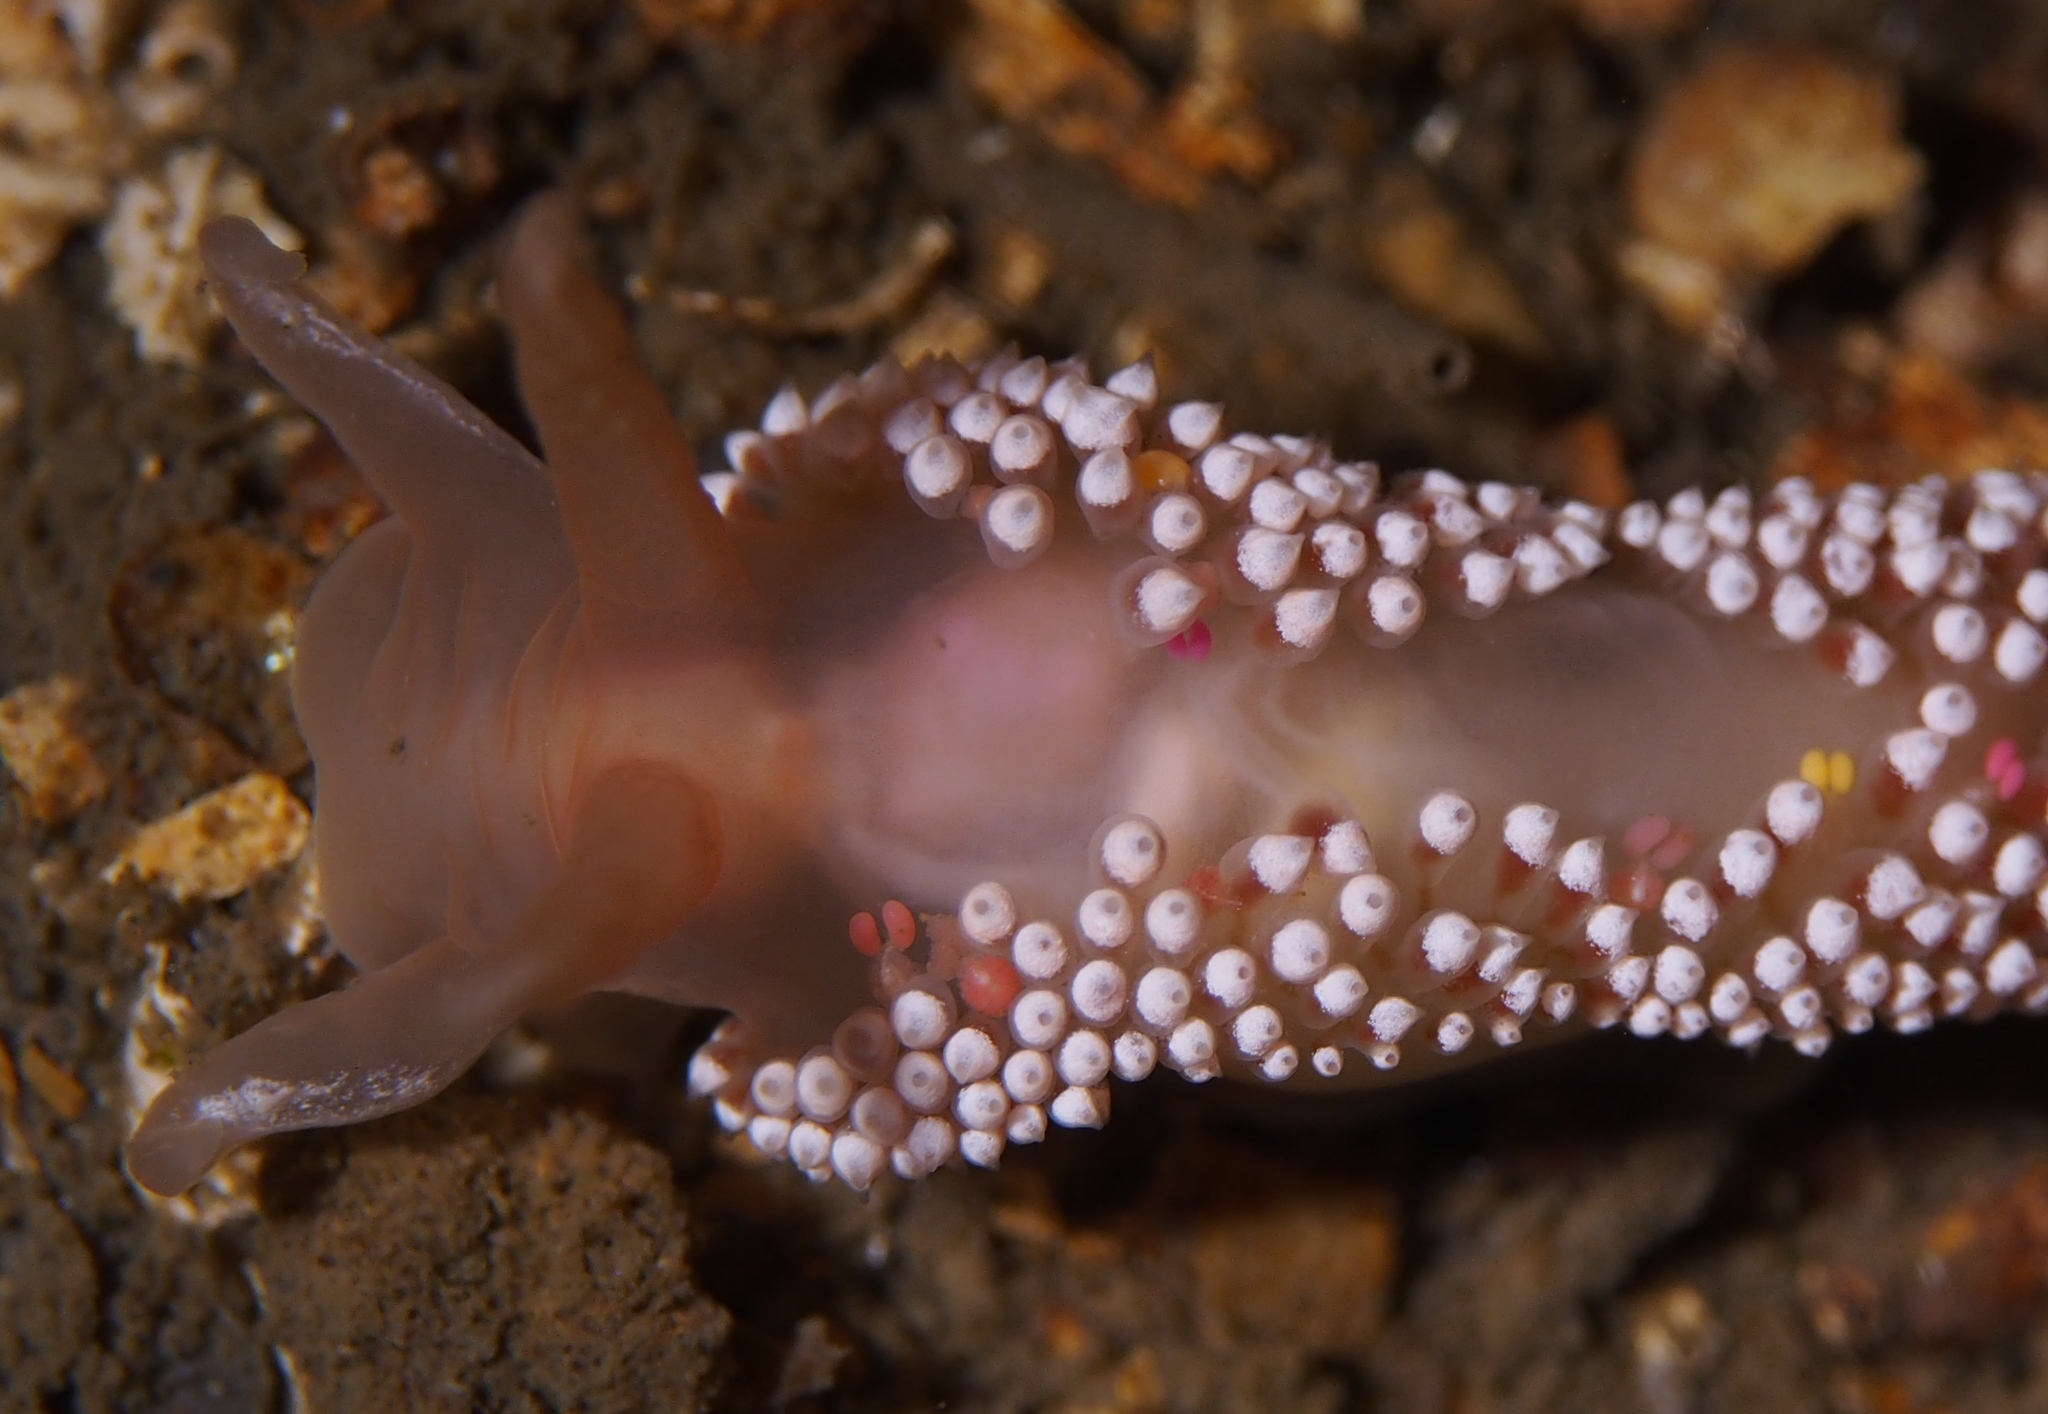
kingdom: Animalia
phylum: Mollusca
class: Gastropoda
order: Nudibranchia
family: Coryphellidae
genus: Coryphella
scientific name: Coryphella verrucosa
